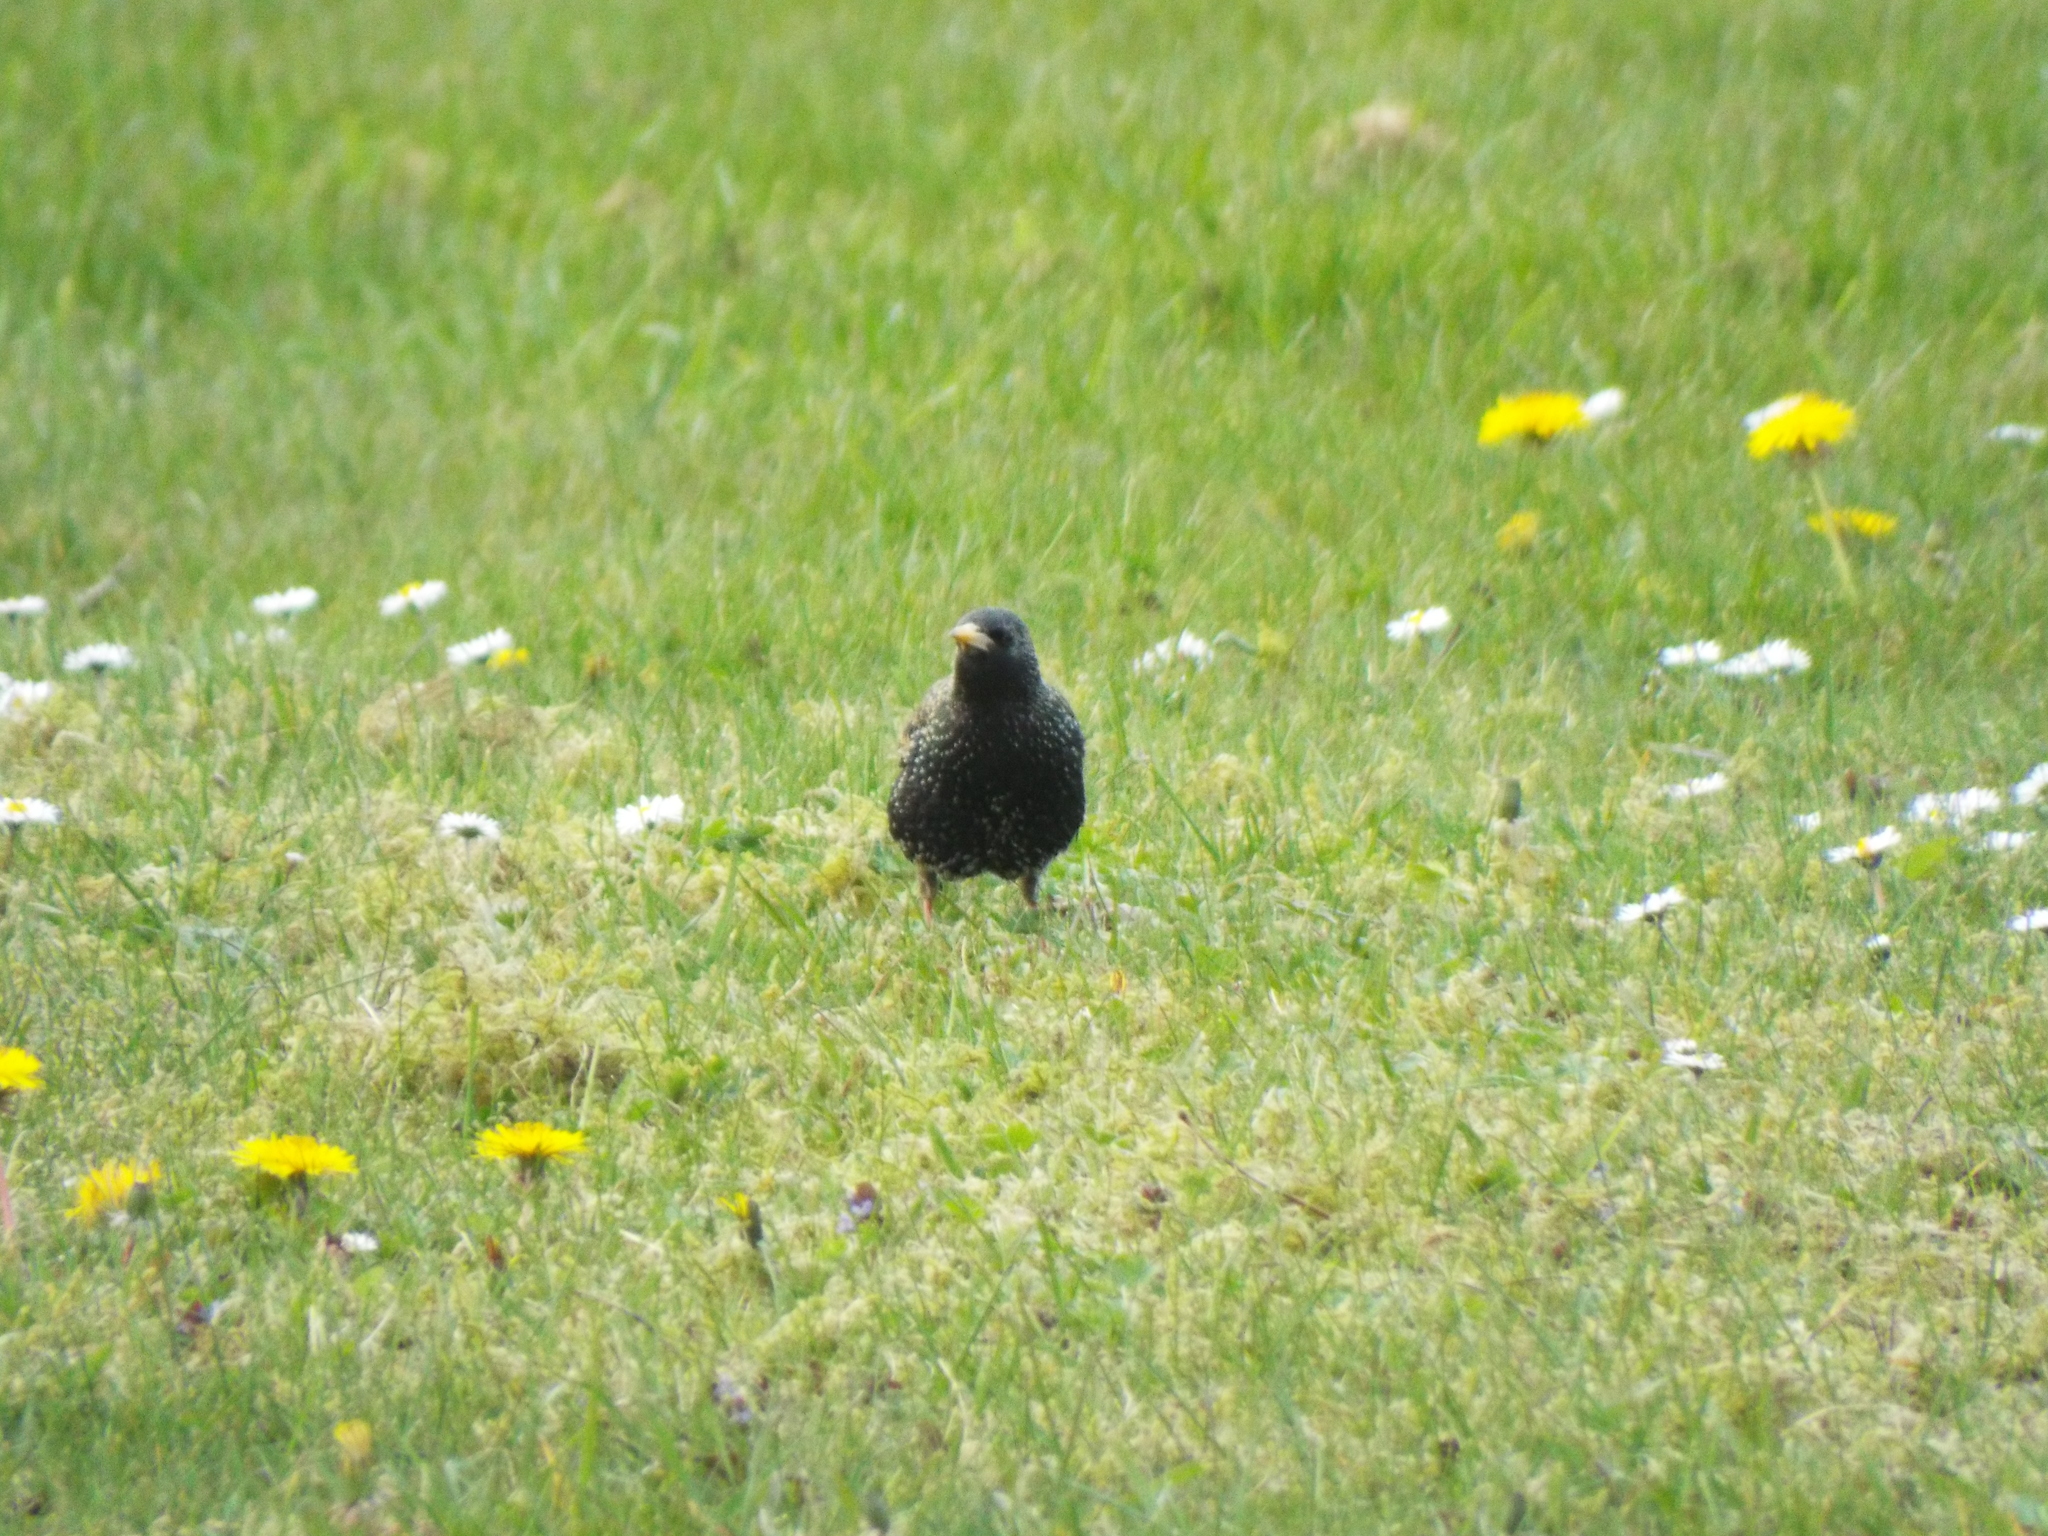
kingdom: Animalia
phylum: Chordata
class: Aves
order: Passeriformes
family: Sturnidae
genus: Sturnus
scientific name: Sturnus vulgaris
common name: Common starling
